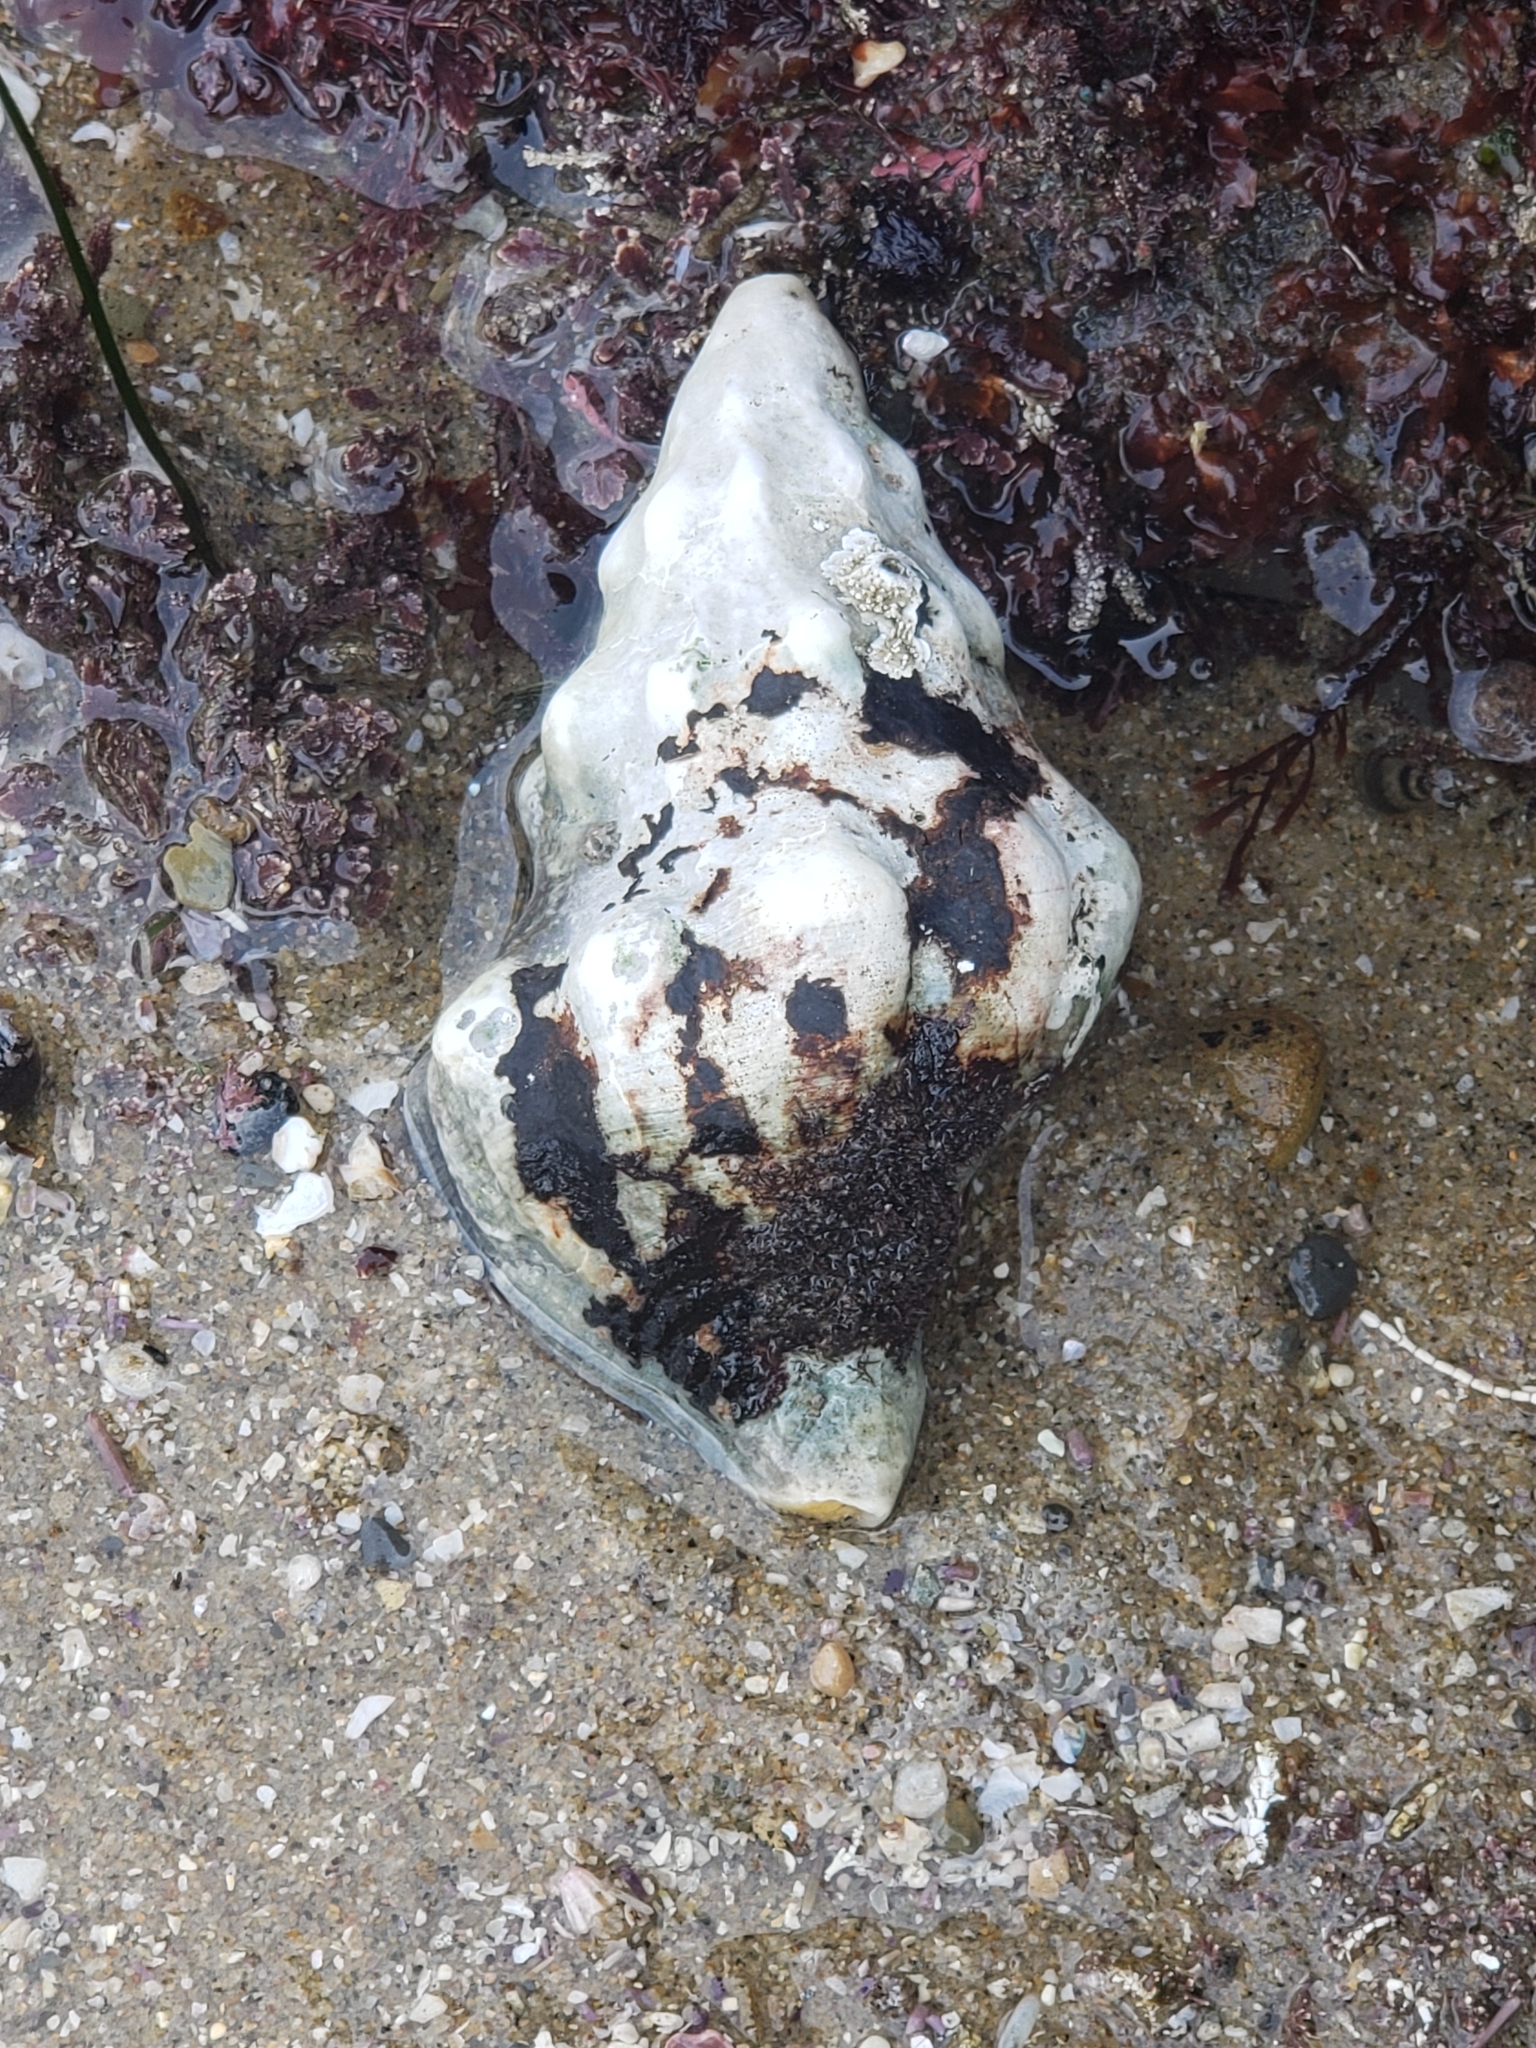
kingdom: Animalia
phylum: Mollusca
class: Gastropoda
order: Neogastropoda
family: Austrosiphonidae
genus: Kelletia
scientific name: Kelletia kelletii
